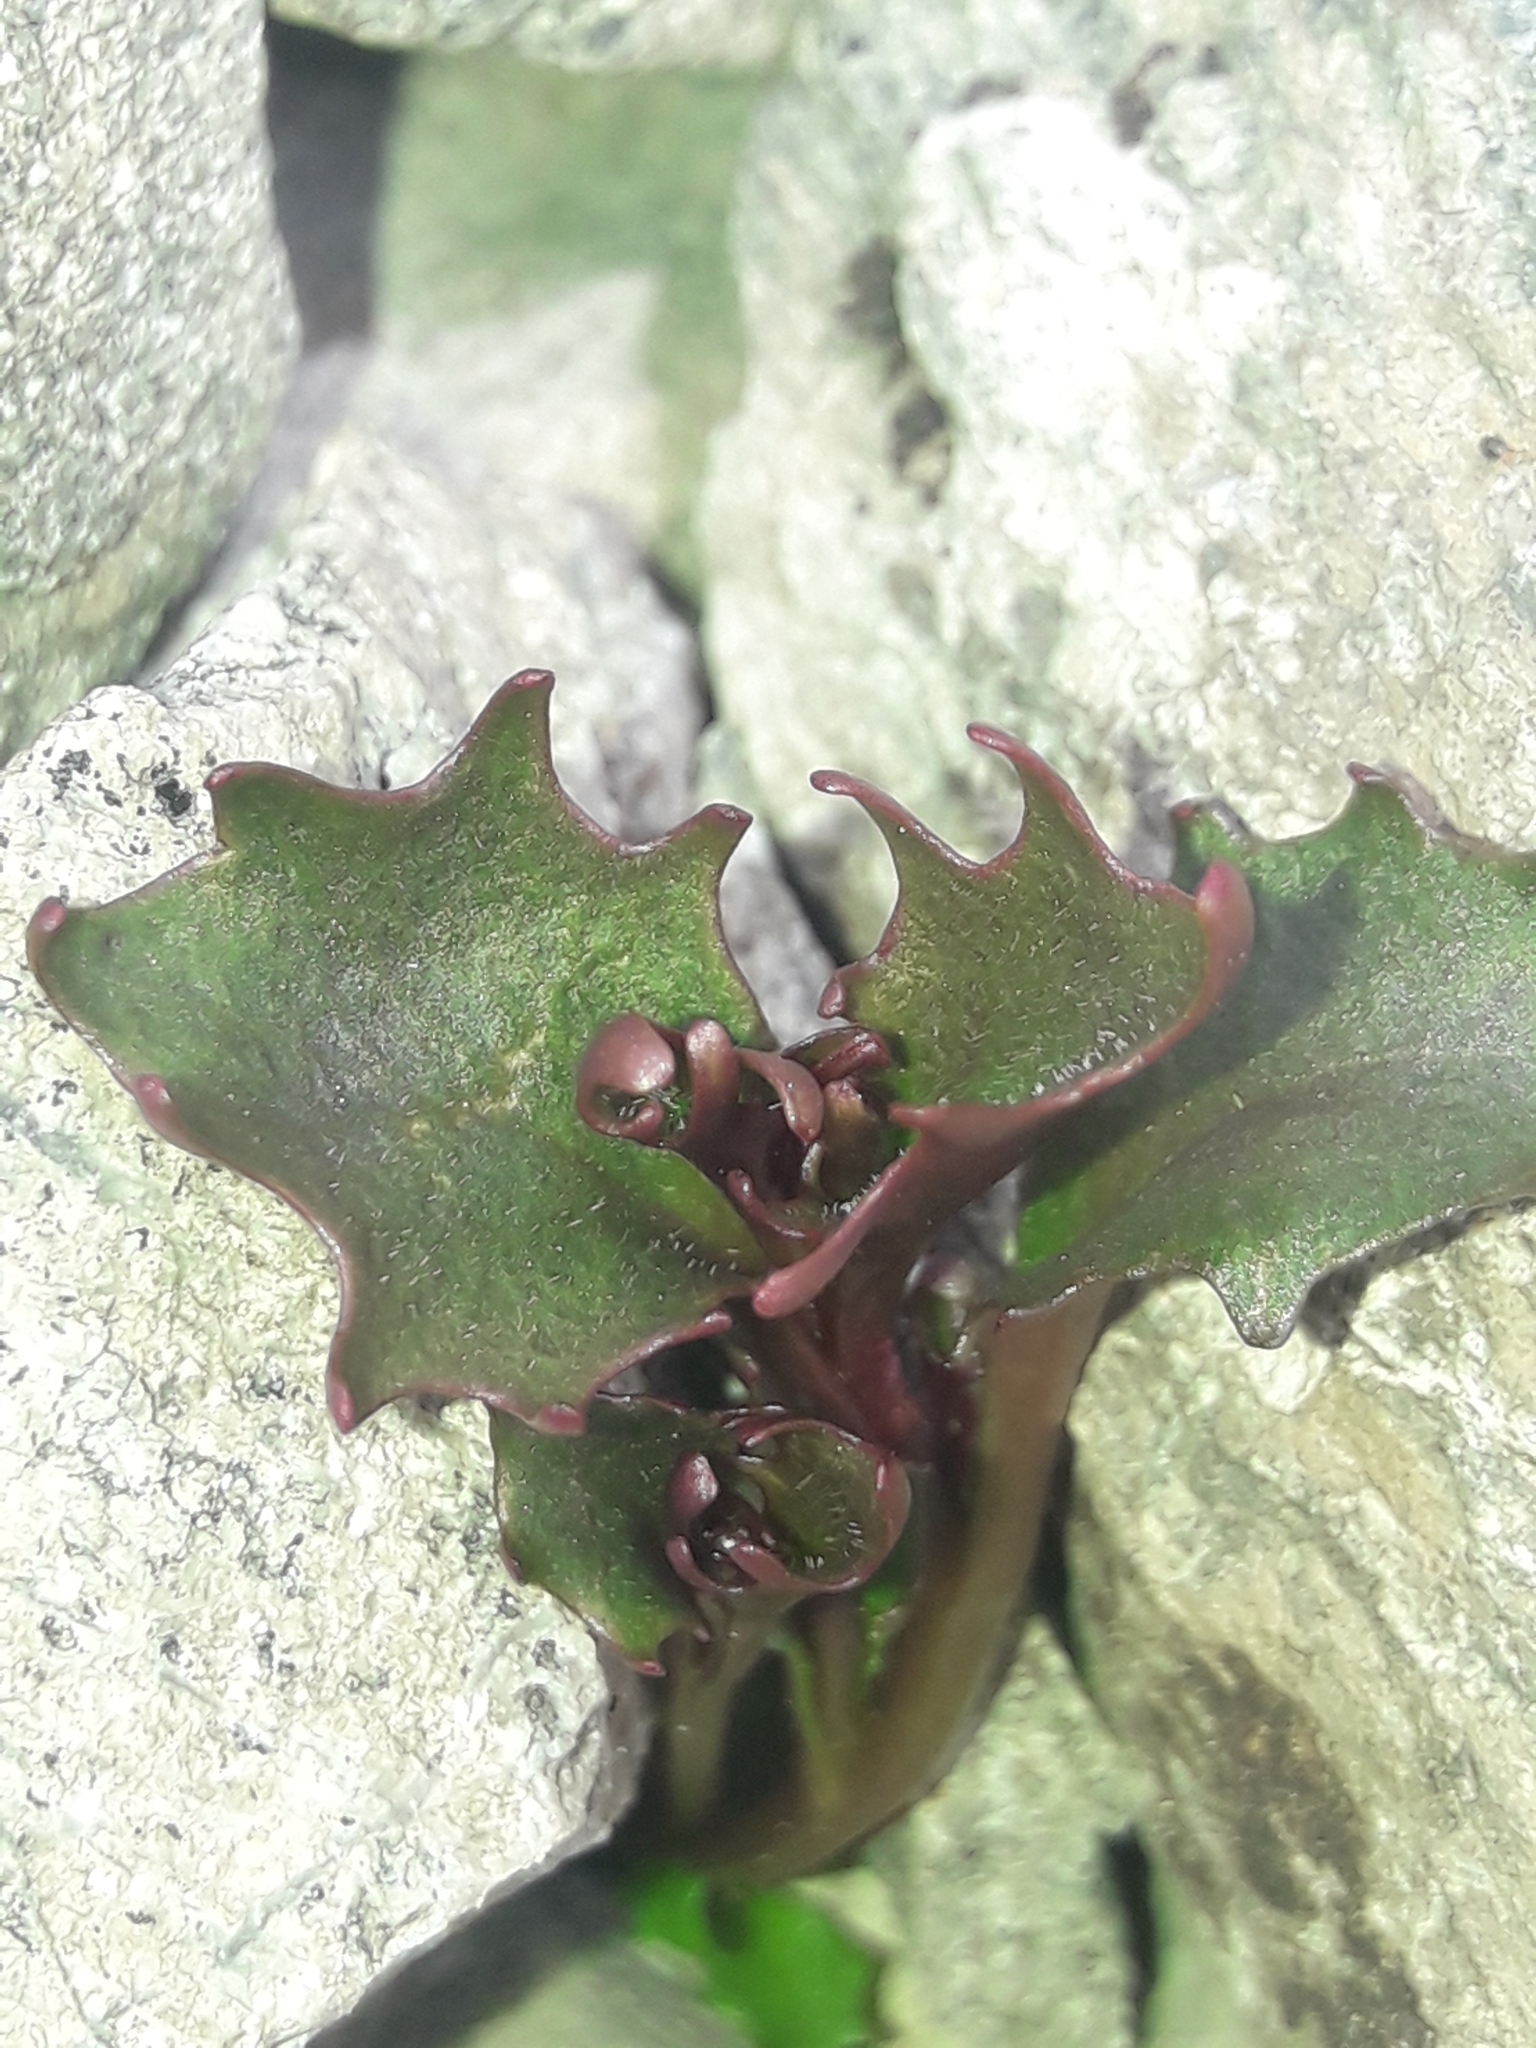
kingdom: Plantae
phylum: Tracheophyta
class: Magnoliopsida
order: Asterales
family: Campanulaceae
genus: Lobelia
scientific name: Lobelia roughii
